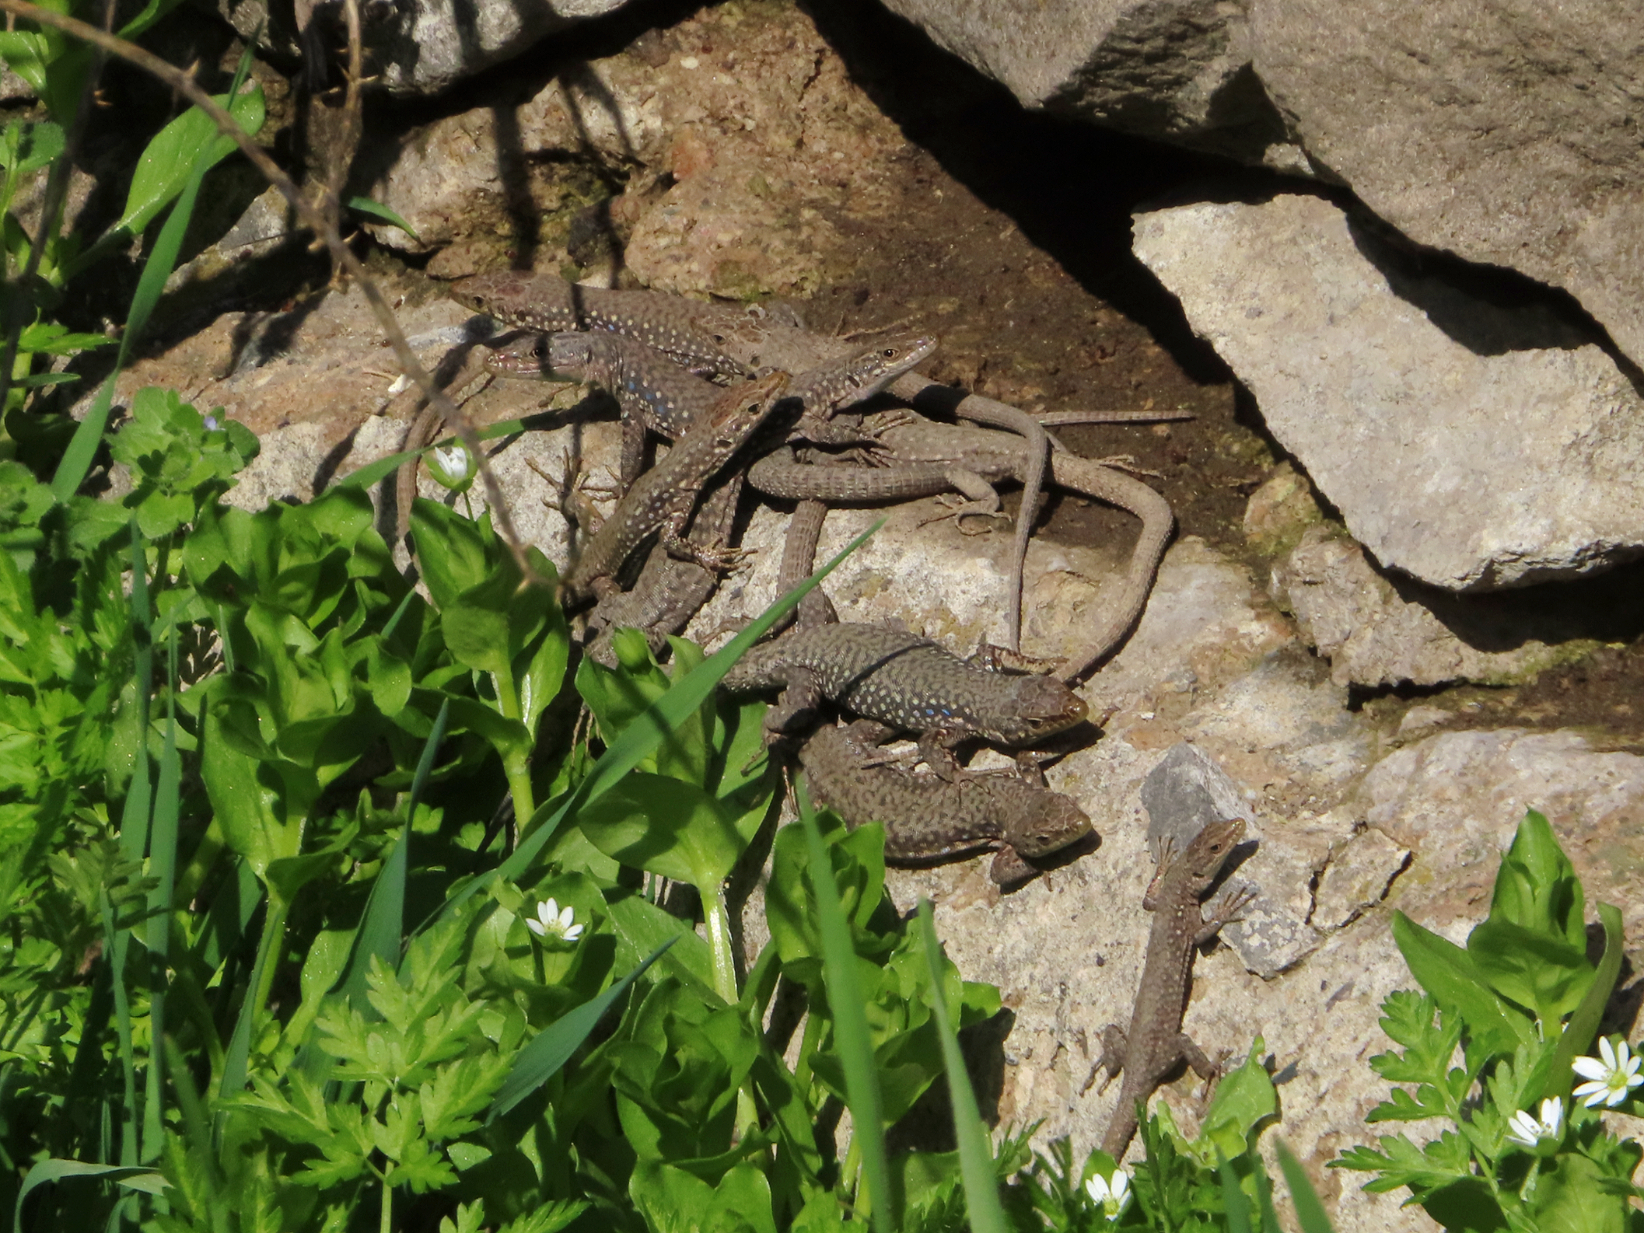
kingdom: Animalia
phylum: Chordata
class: Squamata
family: Lacertidae
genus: Darevskia
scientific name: Darevskia
